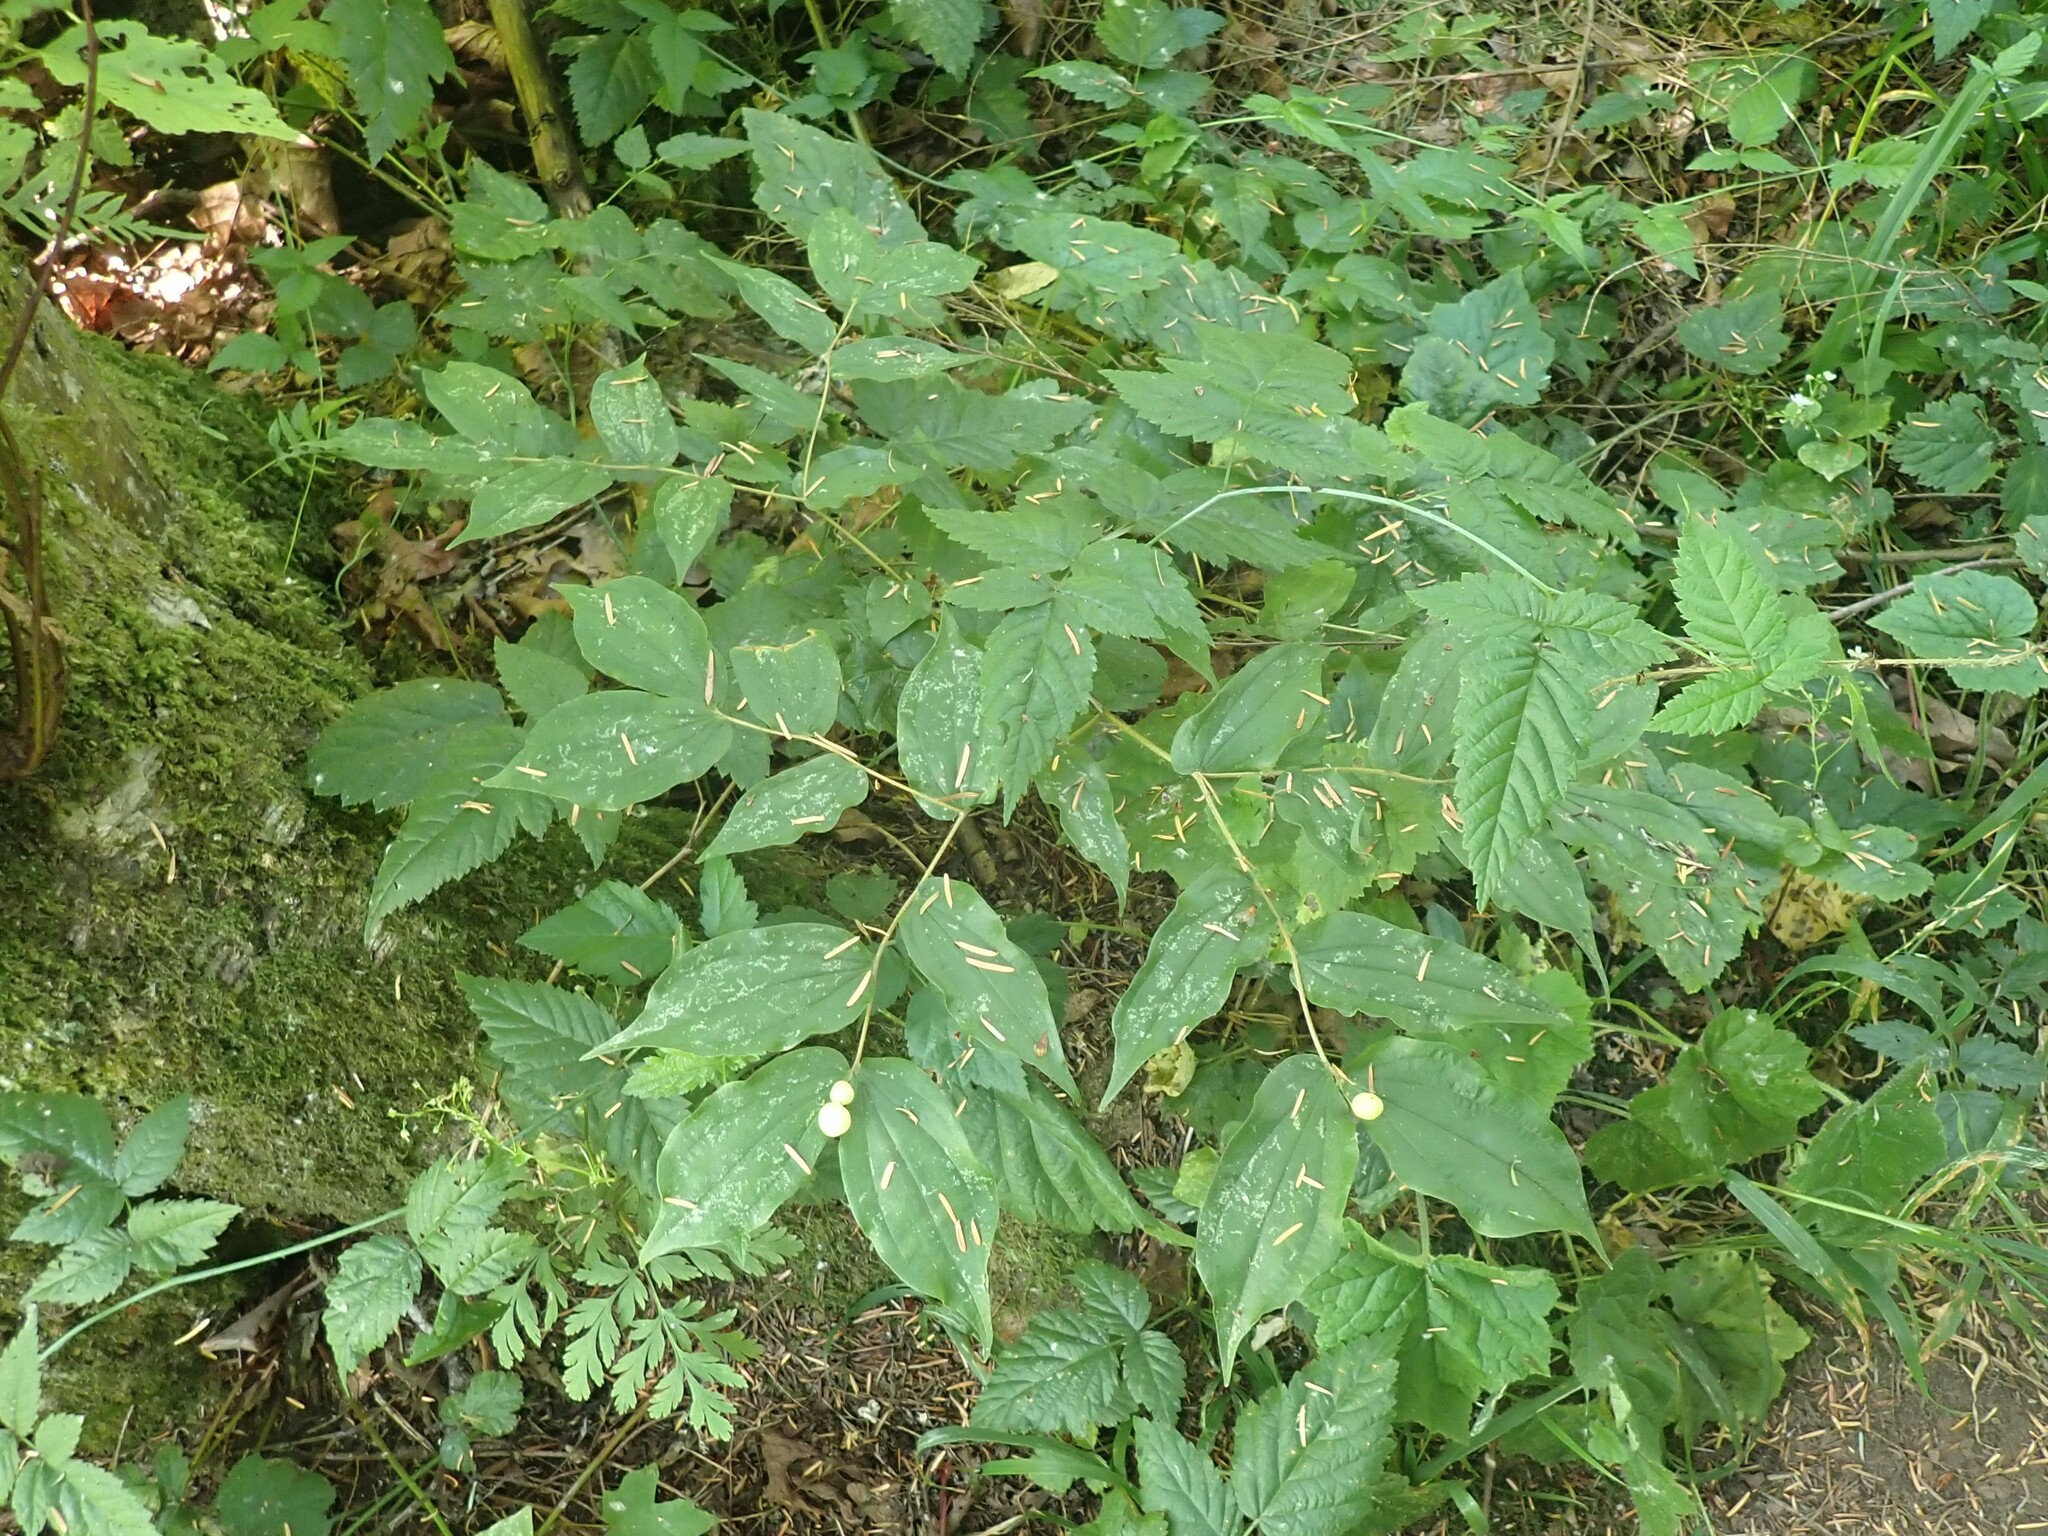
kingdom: Plantae
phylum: Tracheophyta
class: Liliopsida
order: Liliales
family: Liliaceae
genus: Prosartes
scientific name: Prosartes hookeri
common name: Fairy-bells
